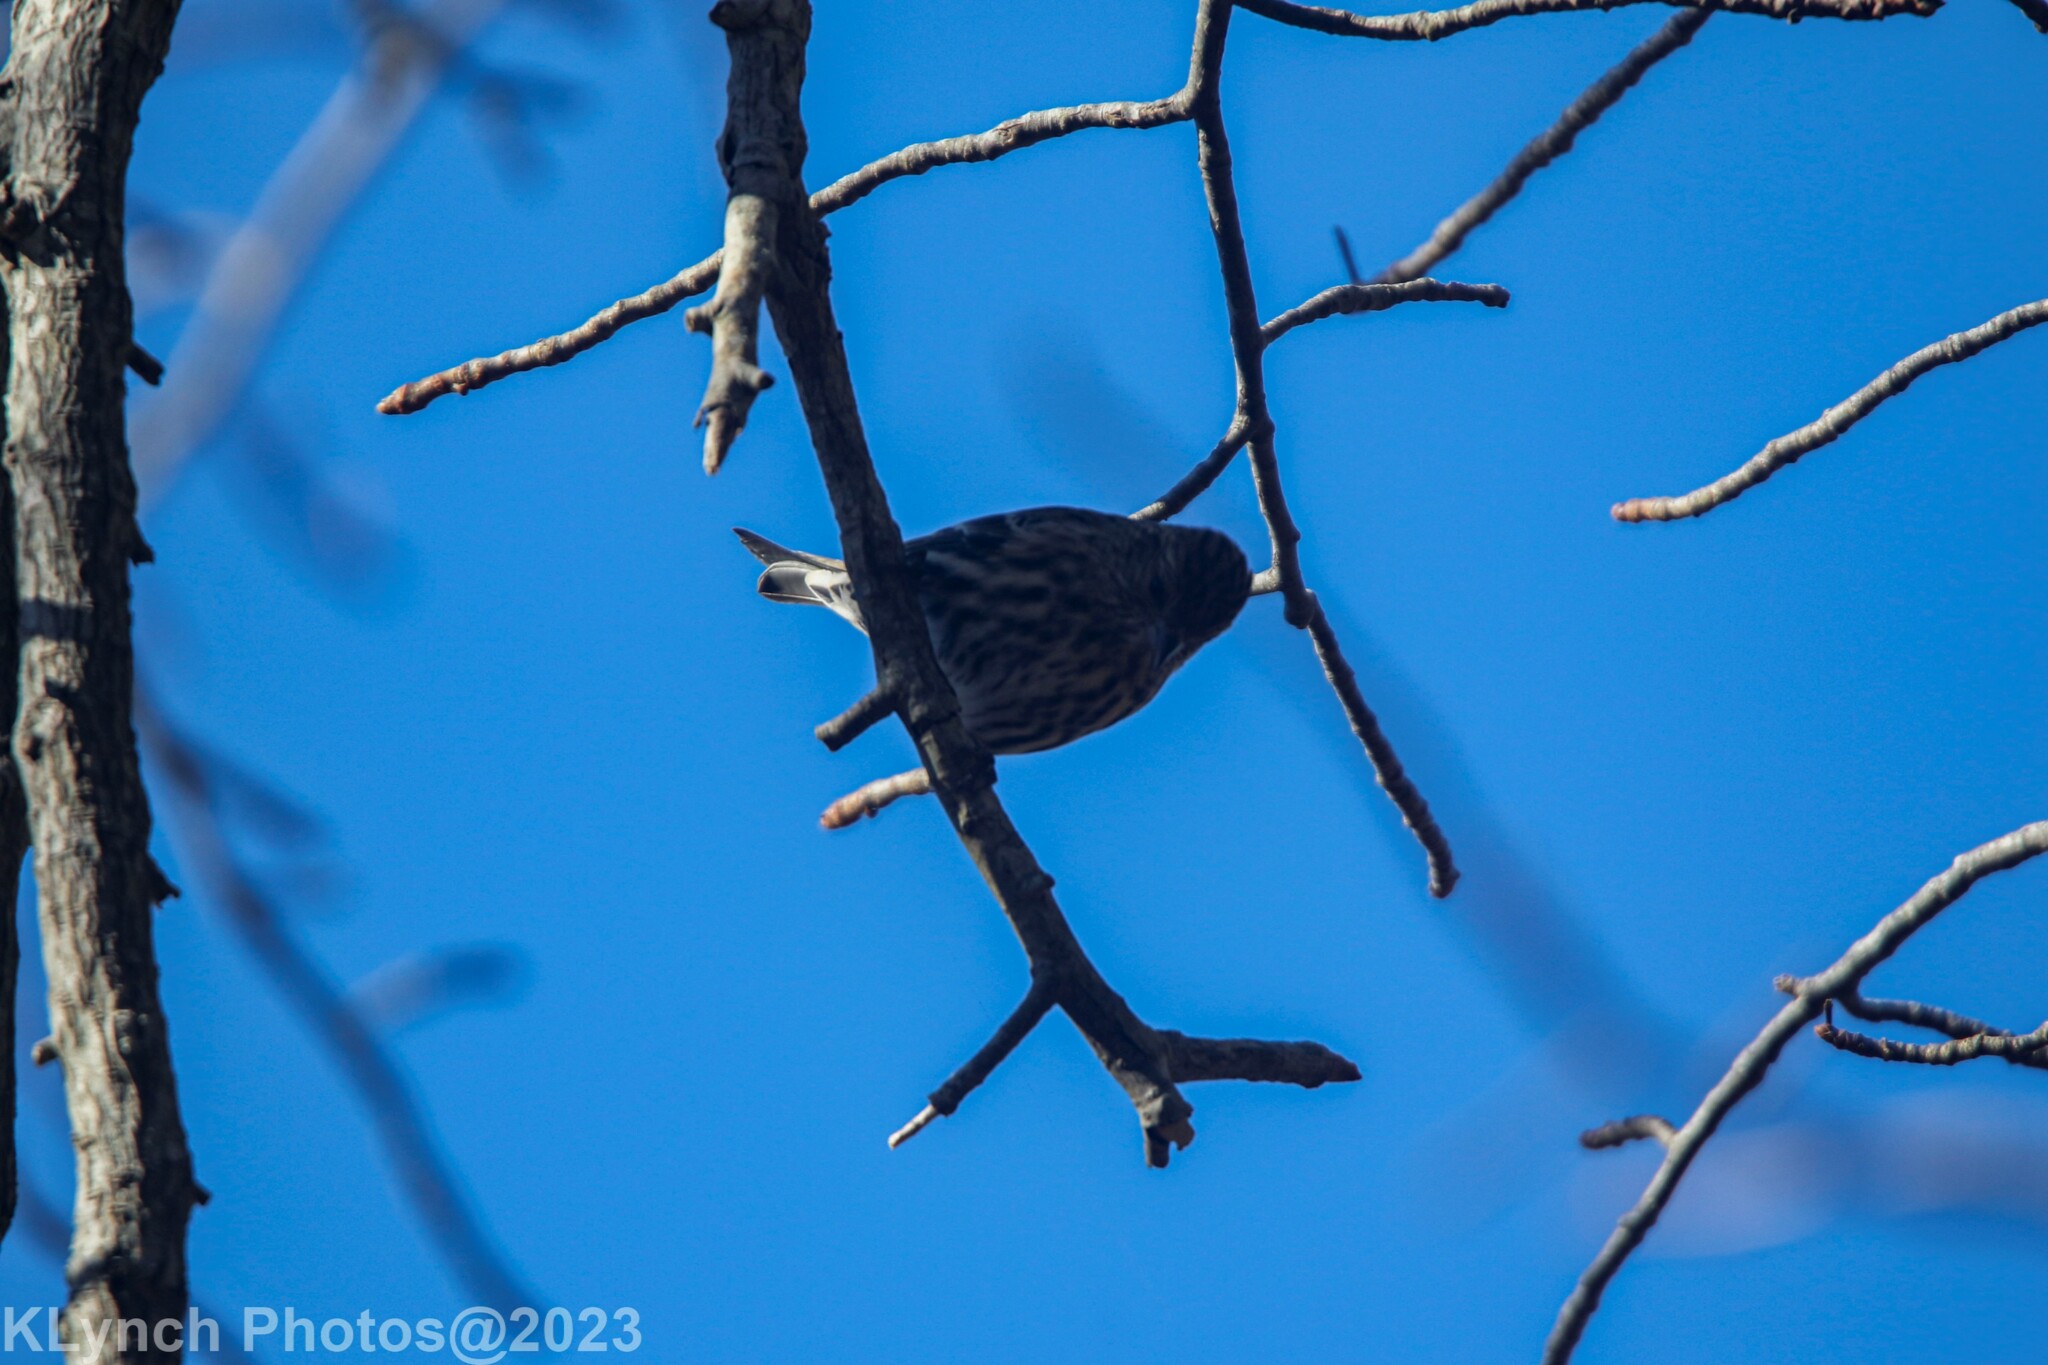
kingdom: Animalia
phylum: Chordata
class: Aves
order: Passeriformes
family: Fringillidae
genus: Spinus
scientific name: Spinus pinus
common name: Pine siskin
